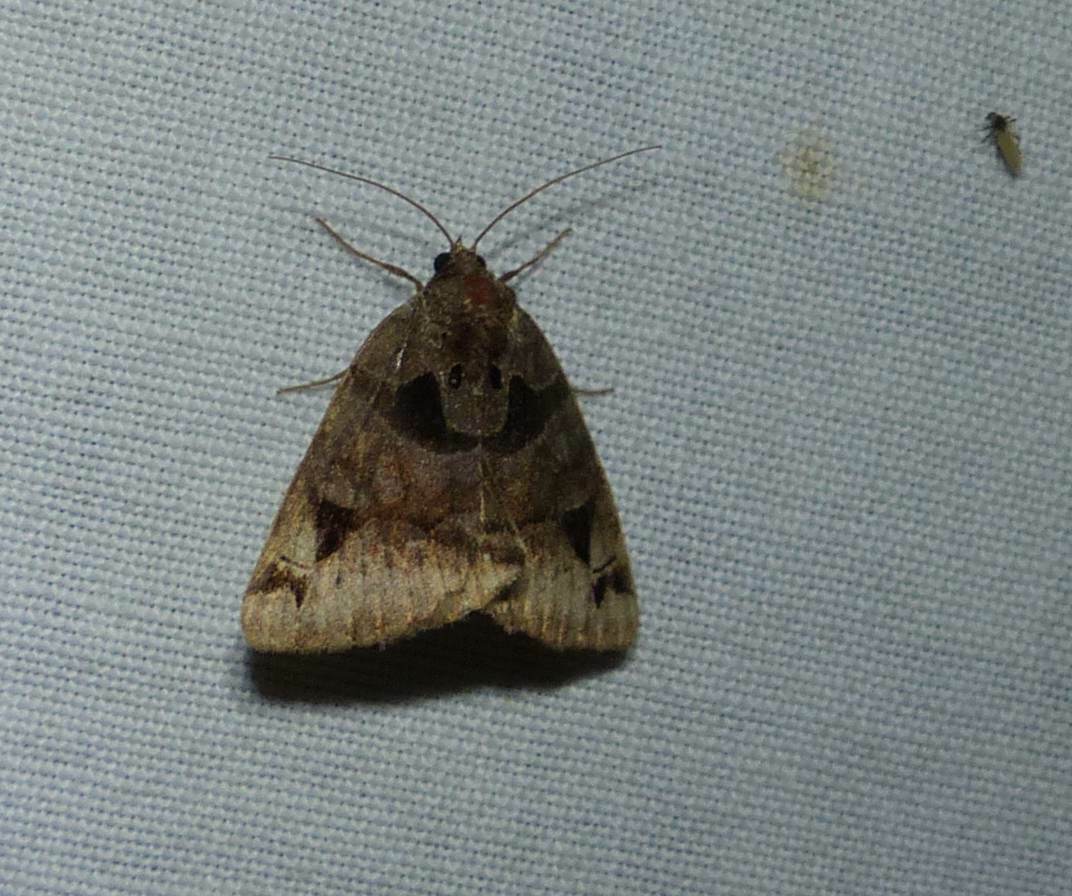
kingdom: Animalia
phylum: Arthropoda
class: Insecta
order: Lepidoptera
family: Erebidae
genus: Euclidia
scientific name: Euclidia cuspidea
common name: Toothed somberwing
